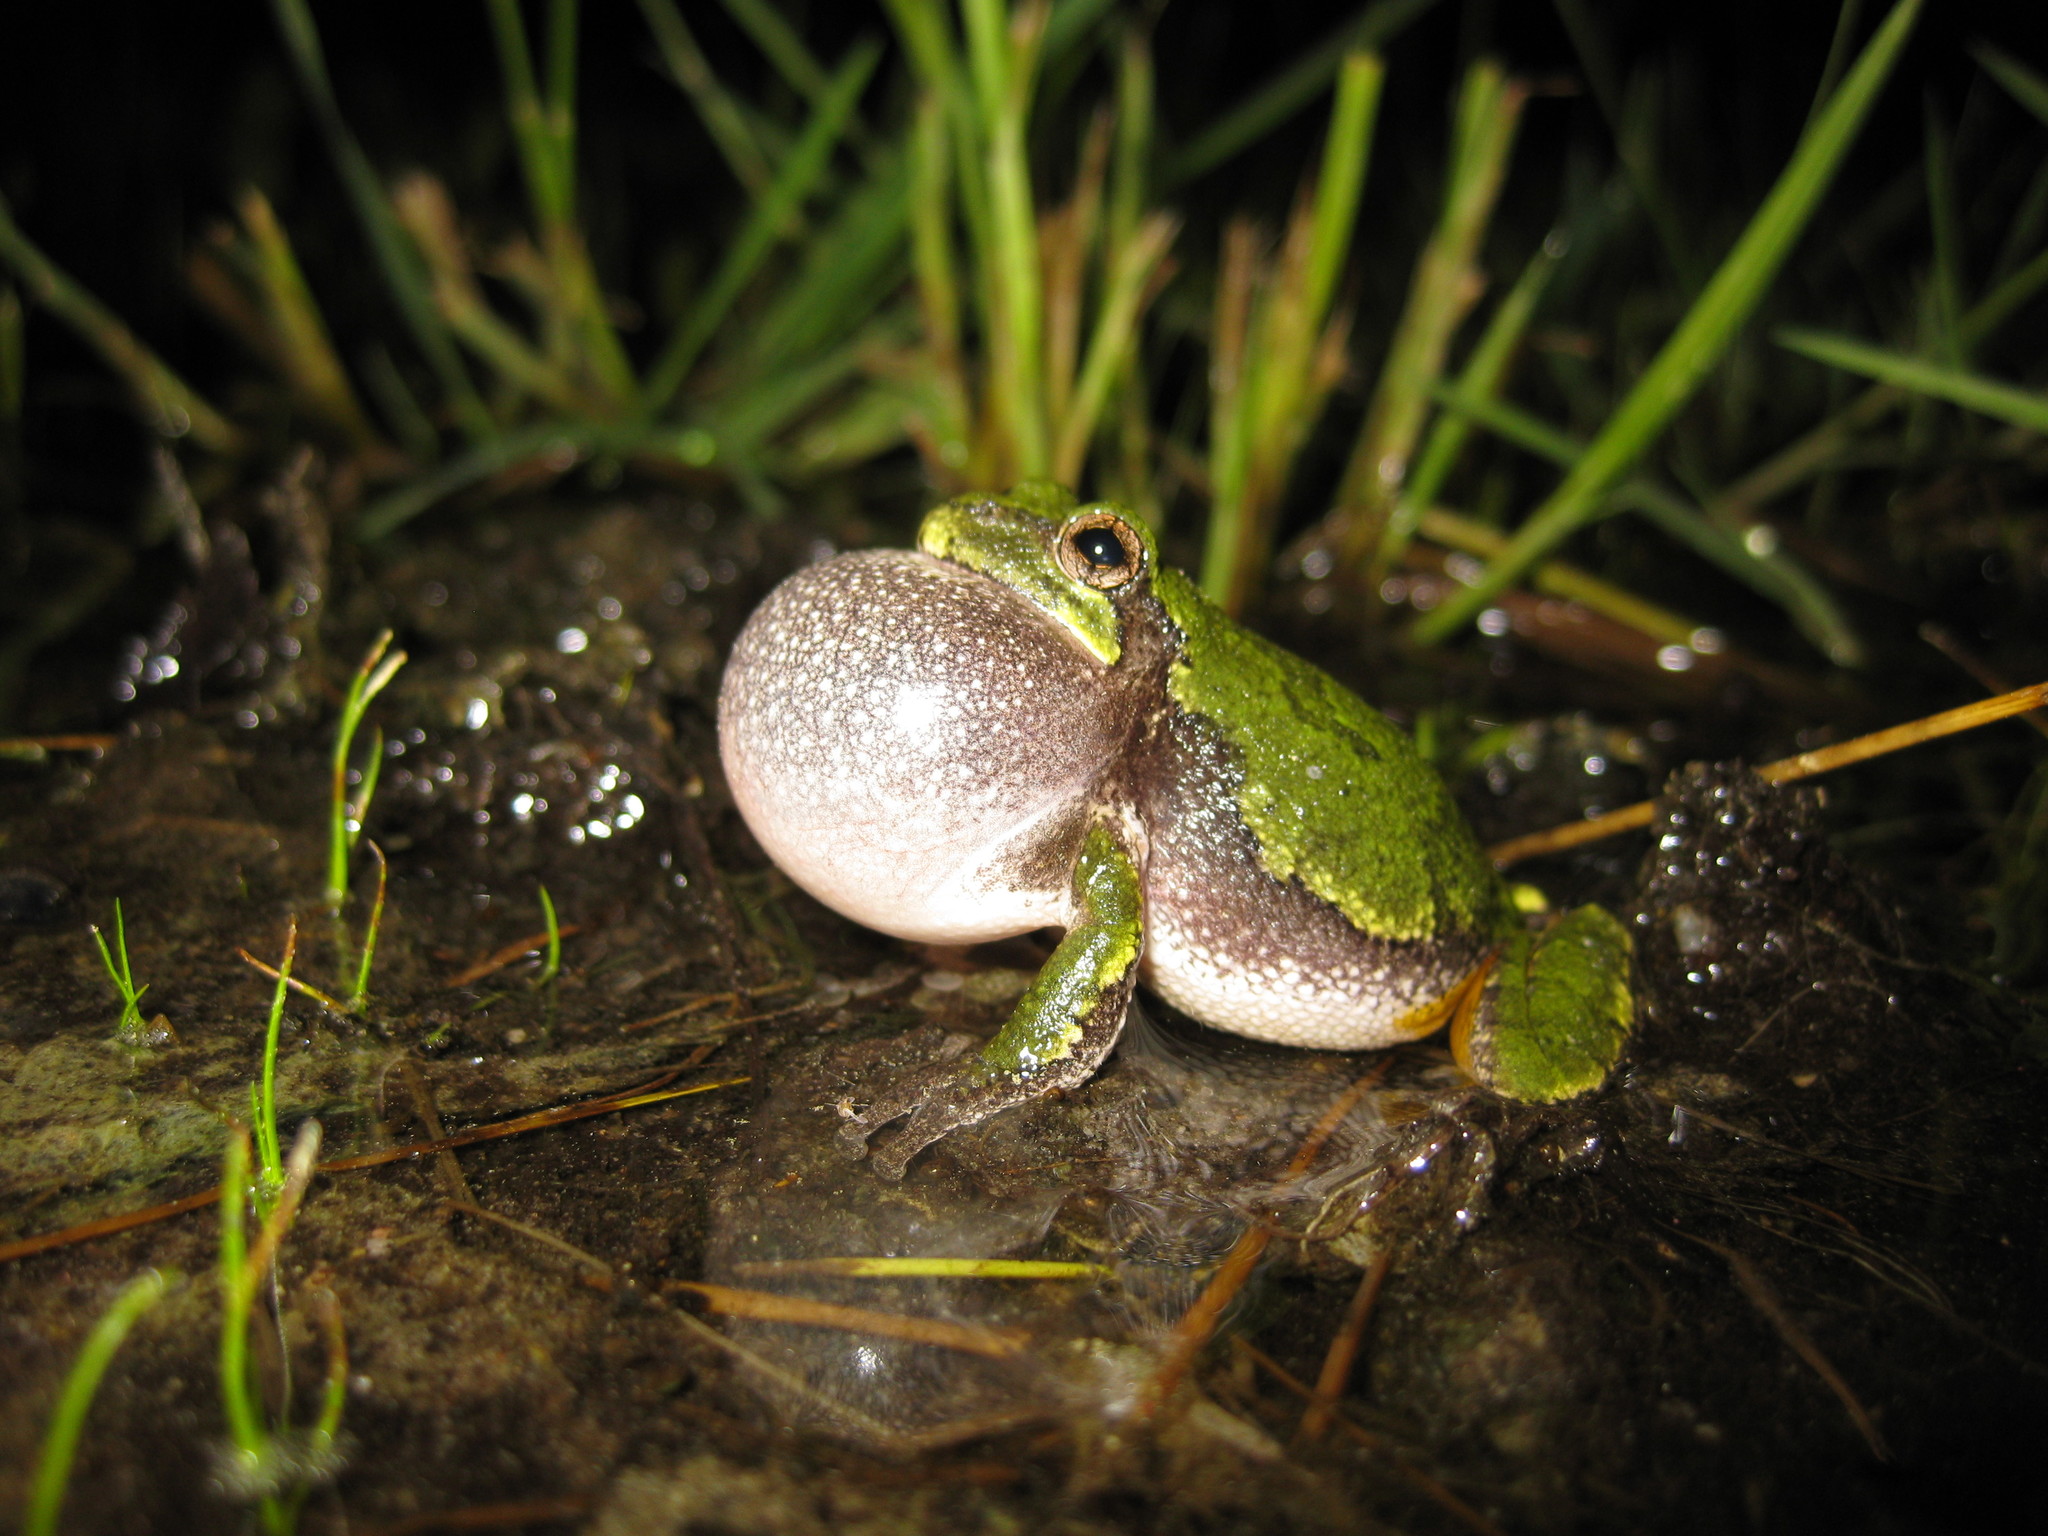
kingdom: Animalia
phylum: Chordata
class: Amphibia
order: Anura
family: Hylidae
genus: Dryophytes
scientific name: Dryophytes versicolor
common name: Gray treefrog
